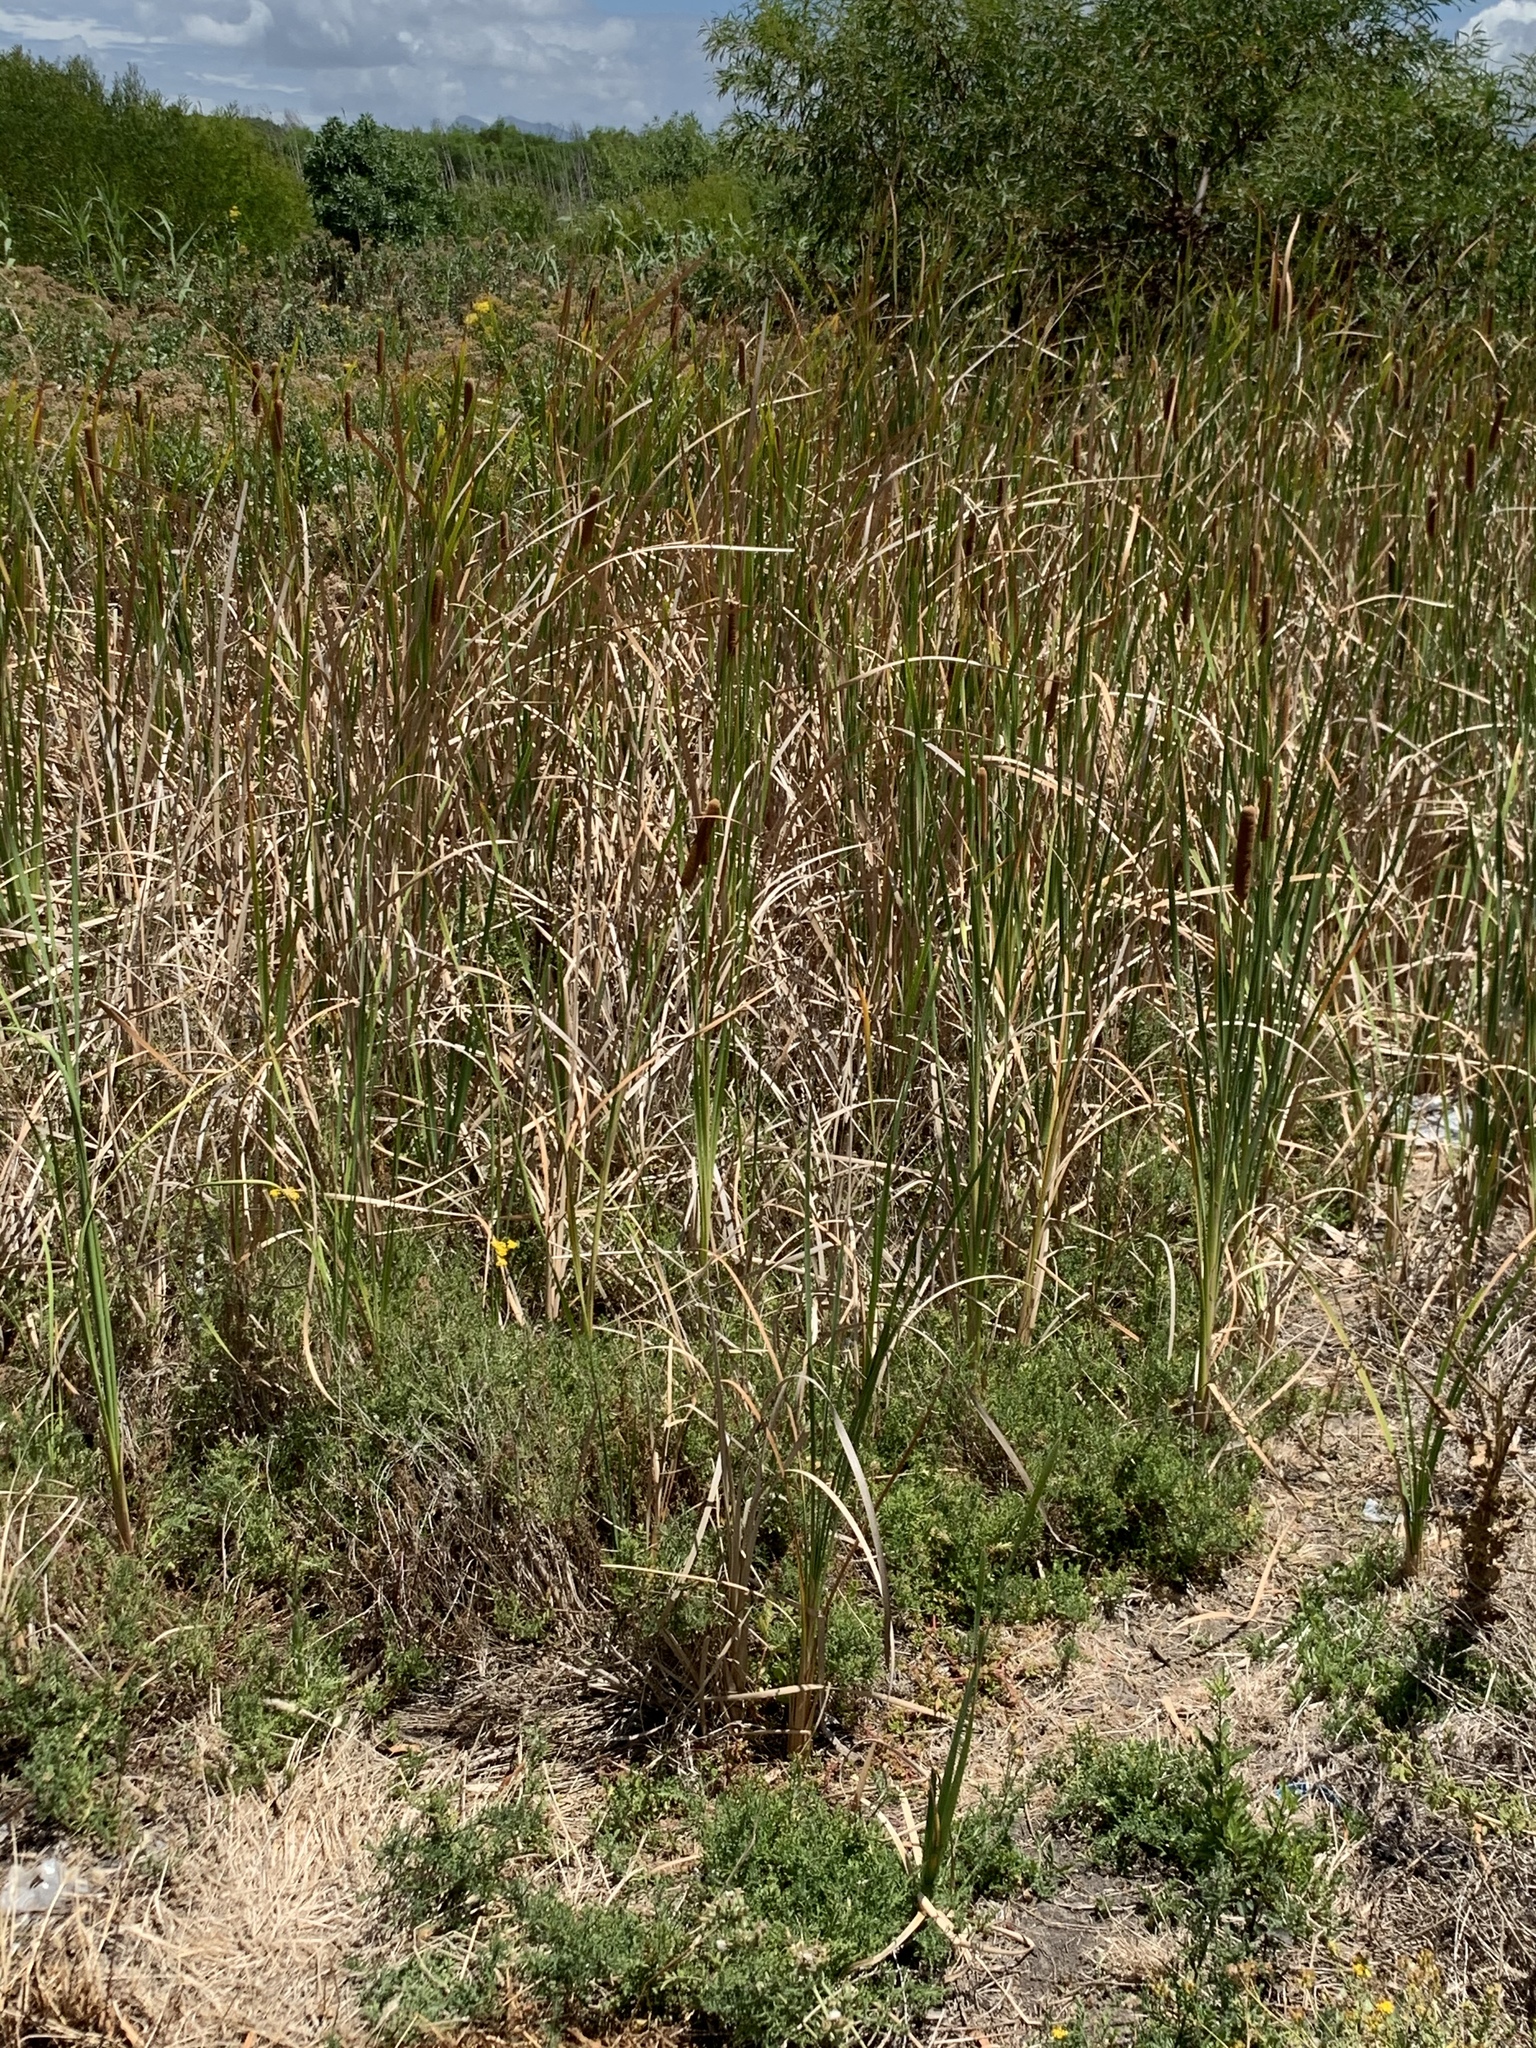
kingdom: Plantae
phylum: Tracheophyta
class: Liliopsida
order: Poales
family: Typhaceae
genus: Typha
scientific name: Typha capensis
